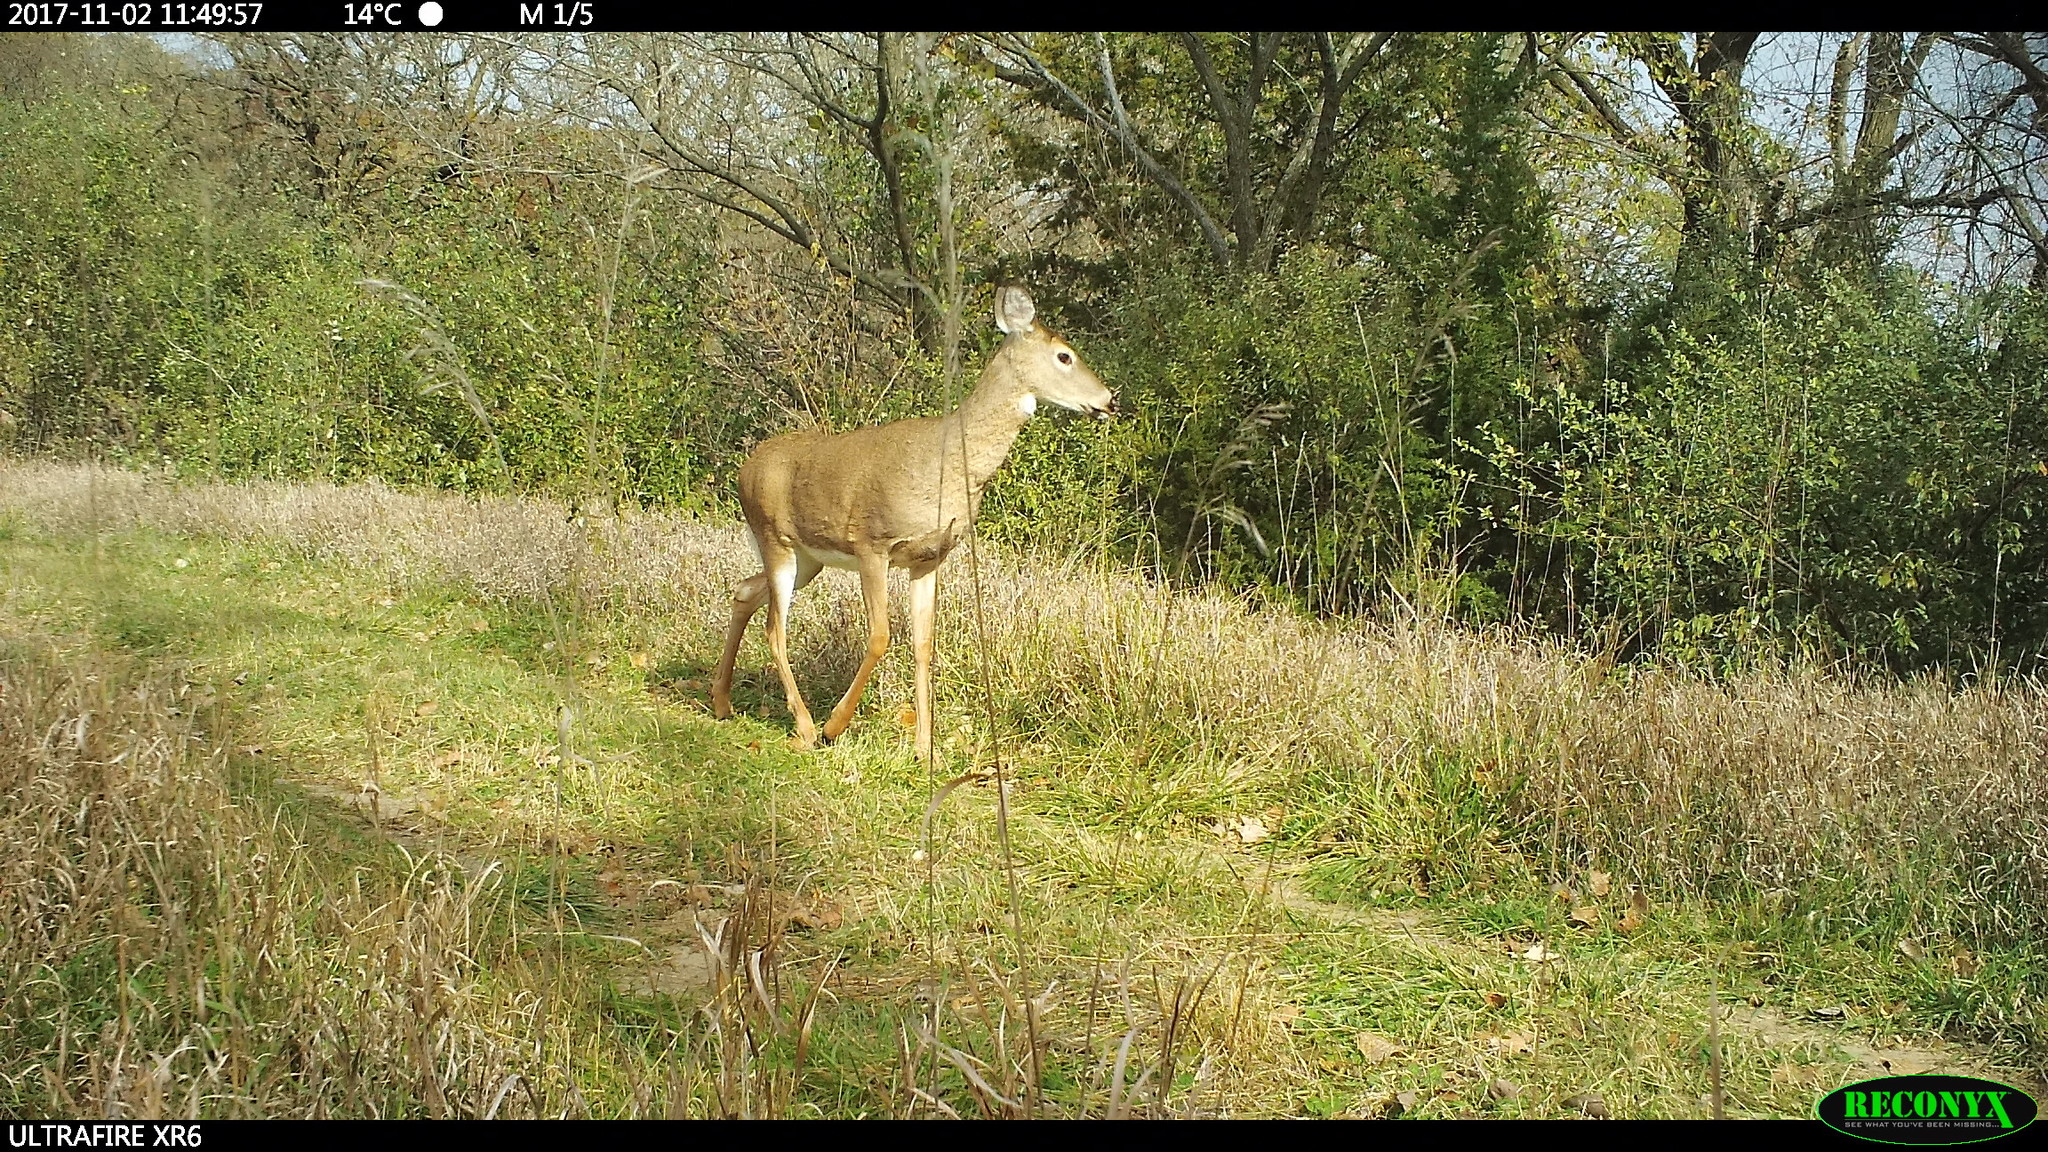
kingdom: Animalia
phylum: Chordata
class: Mammalia
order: Artiodactyla
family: Cervidae
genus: Odocoileus
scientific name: Odocoileus virginianus
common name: White-tailed deer
